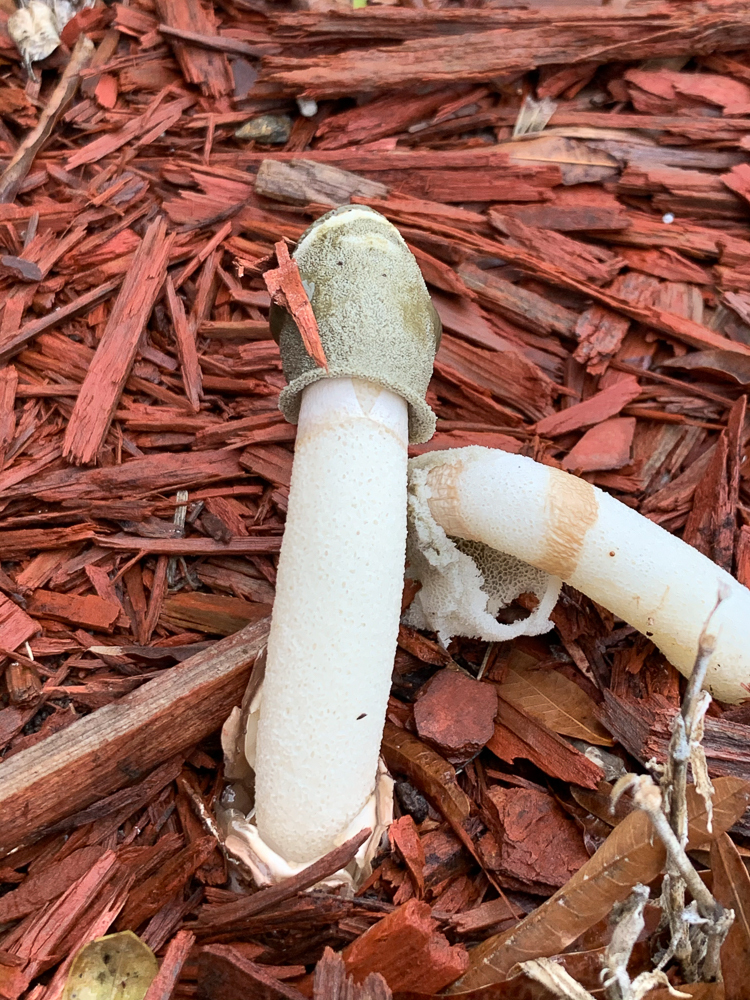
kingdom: Fungi
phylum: Basidiomycota
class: Agaricomycetes
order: Phallales
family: Phallaceae
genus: Phallus
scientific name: Phallus ravenelii
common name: Ravenel's stinkhorn
